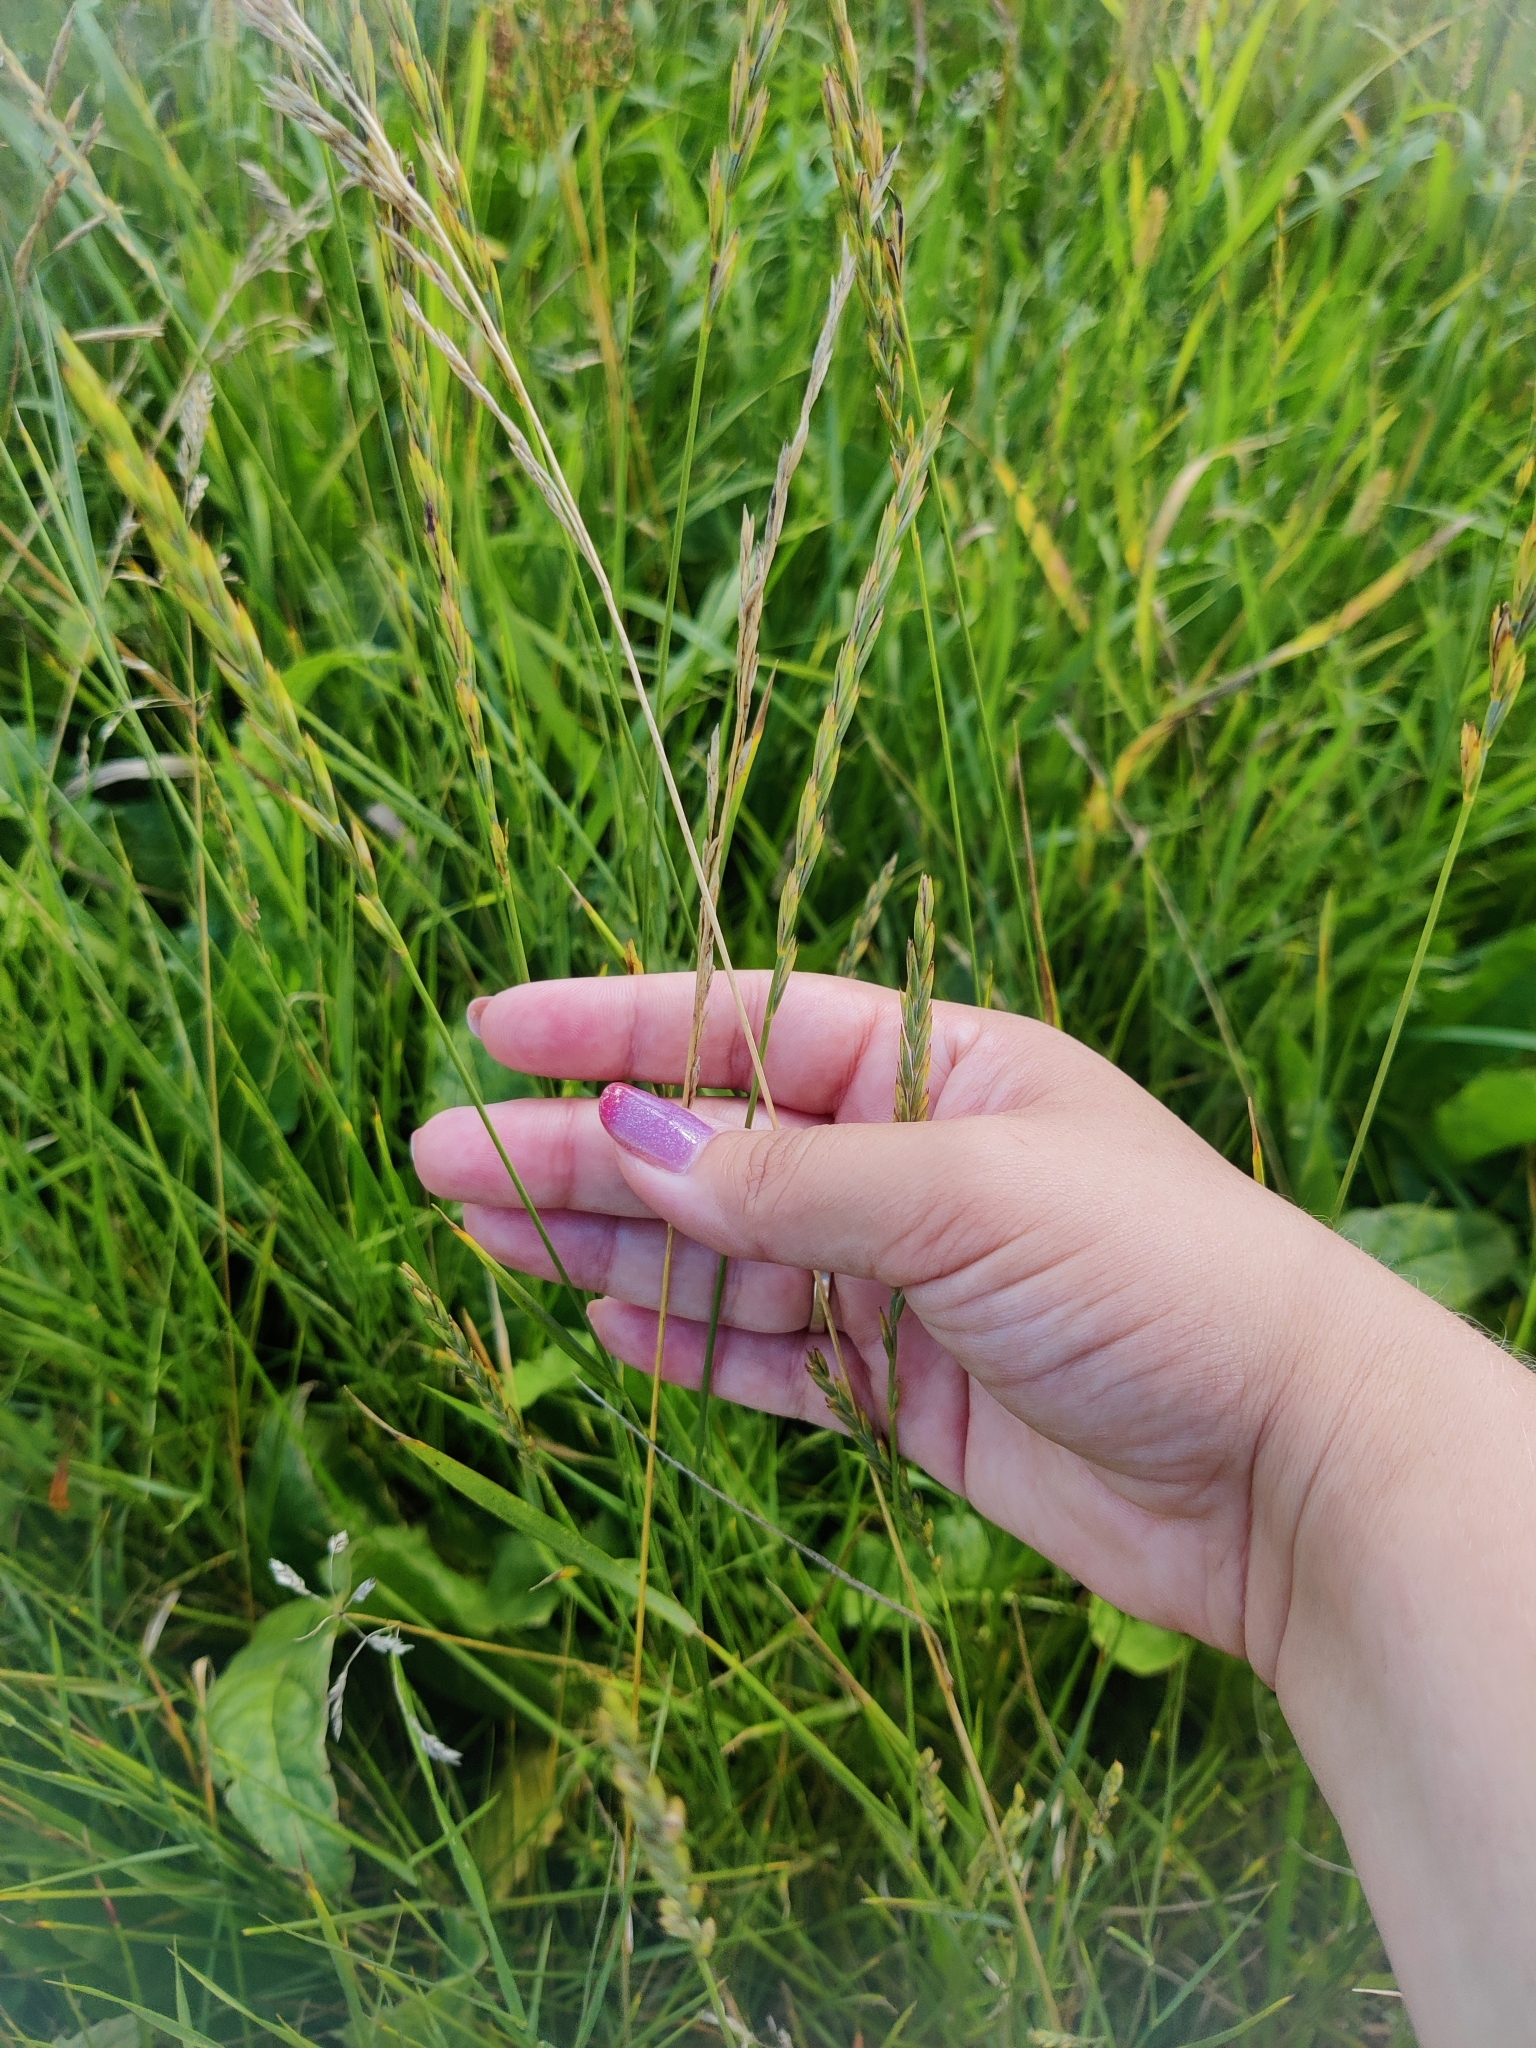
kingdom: Plantae
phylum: Tracheophyta
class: Liliopsida
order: Poales
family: Poaceae
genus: Elymus
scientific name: Elymus repens
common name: Quackgrass
